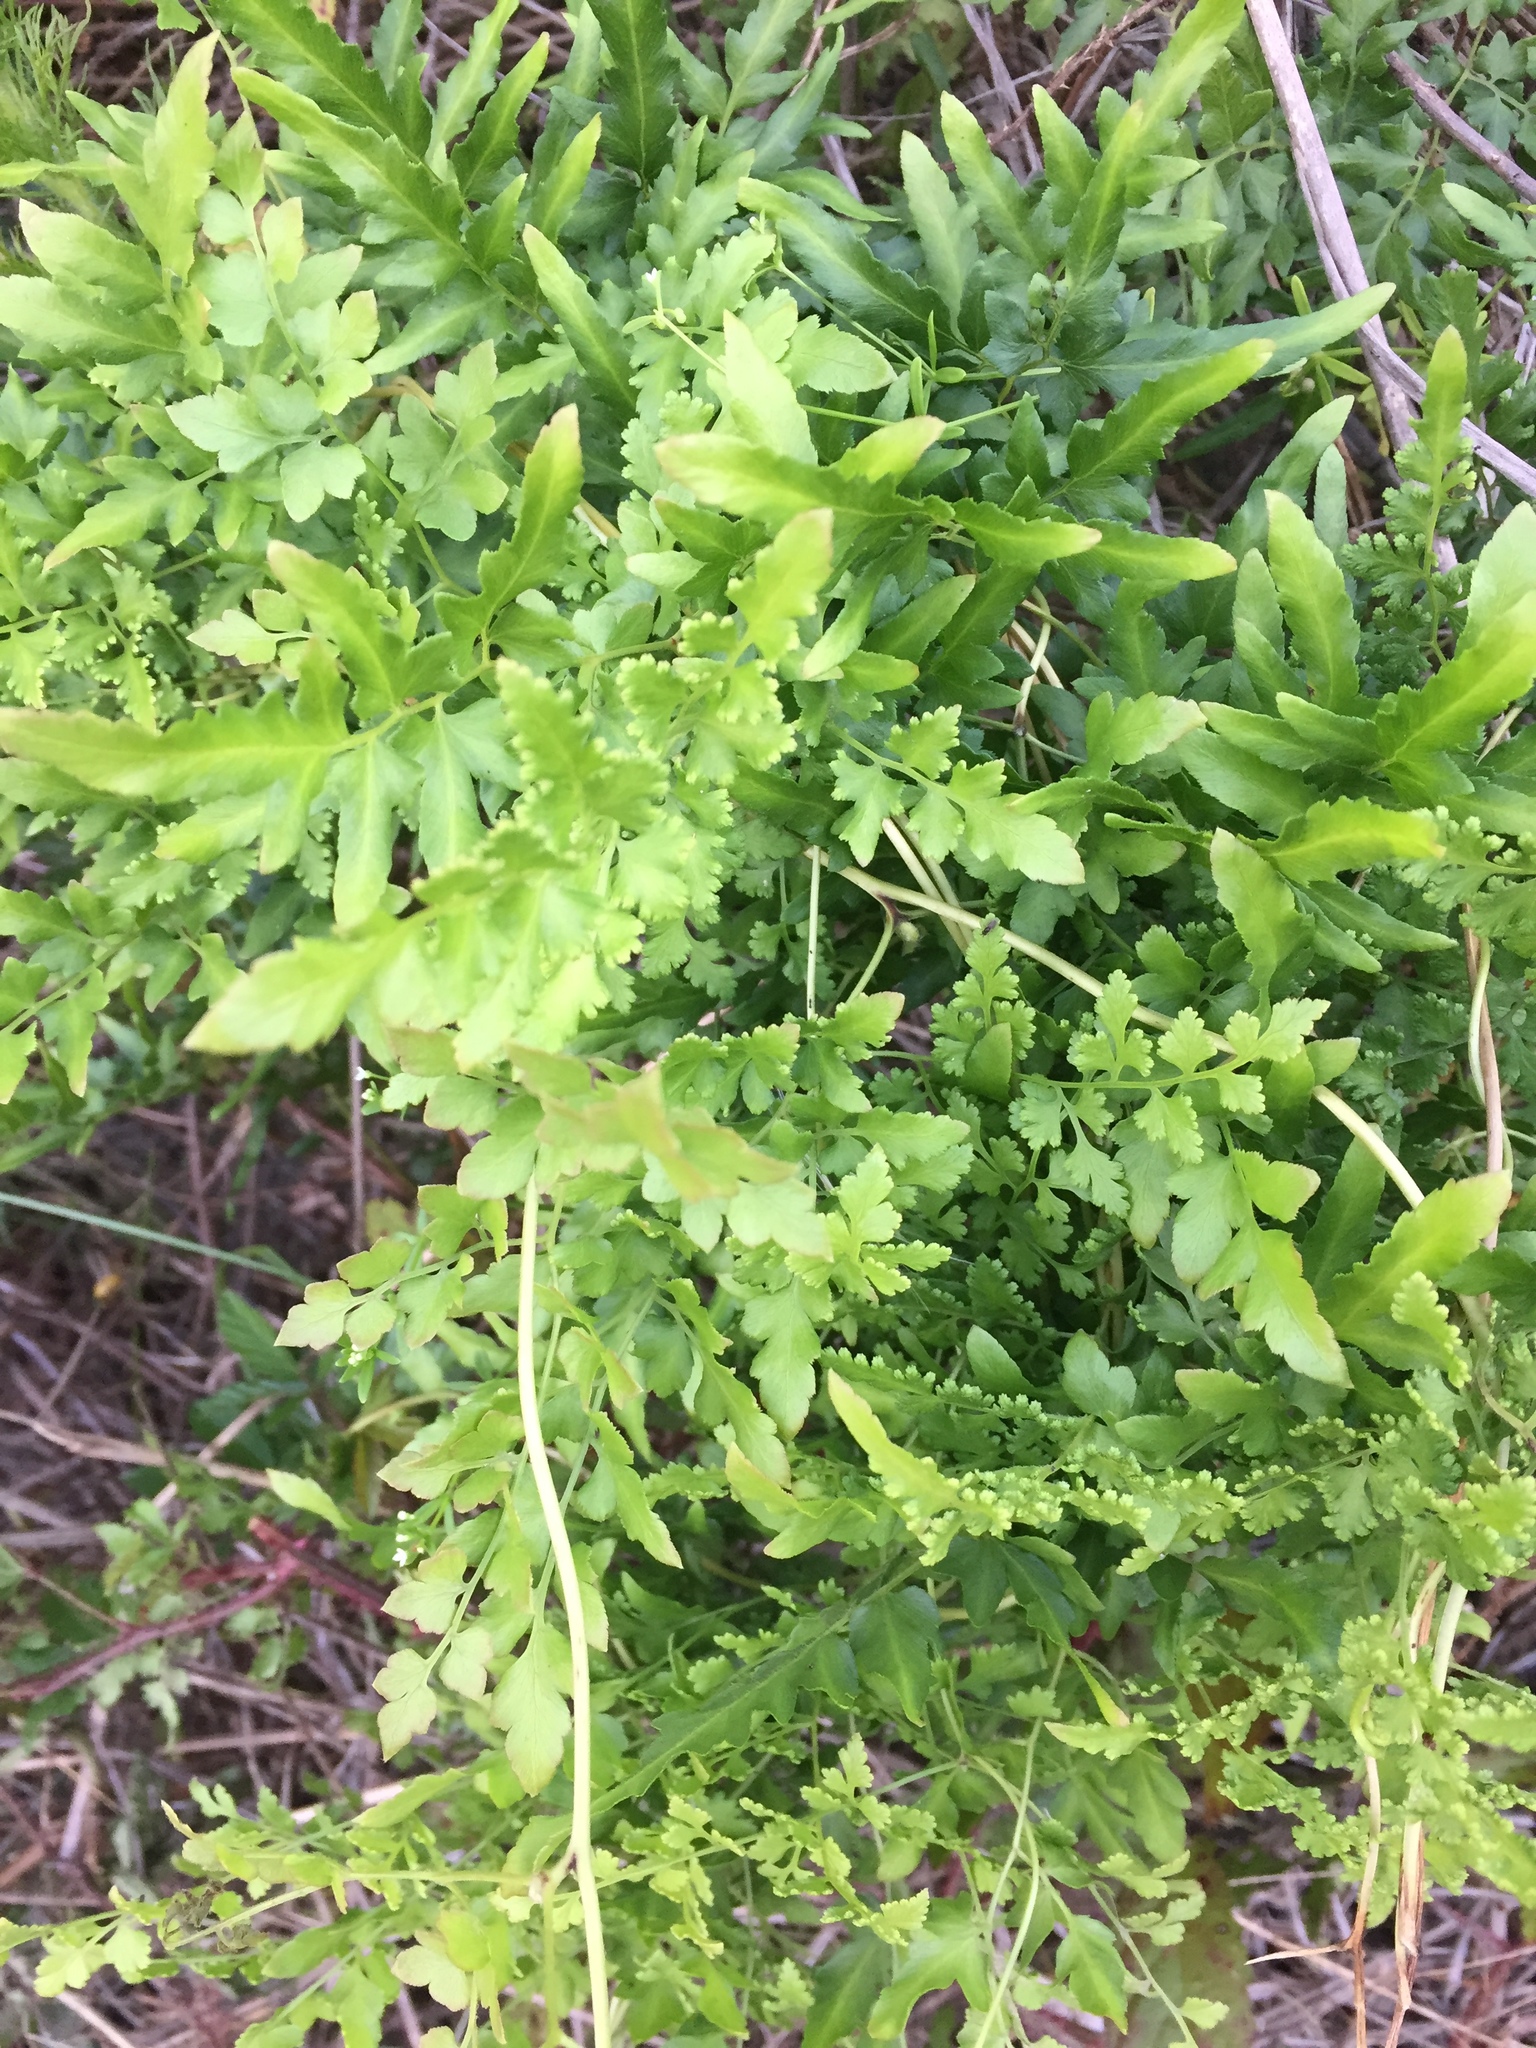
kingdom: Plantae
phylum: Tracheophyta
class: Polypodiopsida
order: Schizaeales
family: Lygodiaceae
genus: Lygodium
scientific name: Lygodium japonicum
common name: Japanese climbing fern
